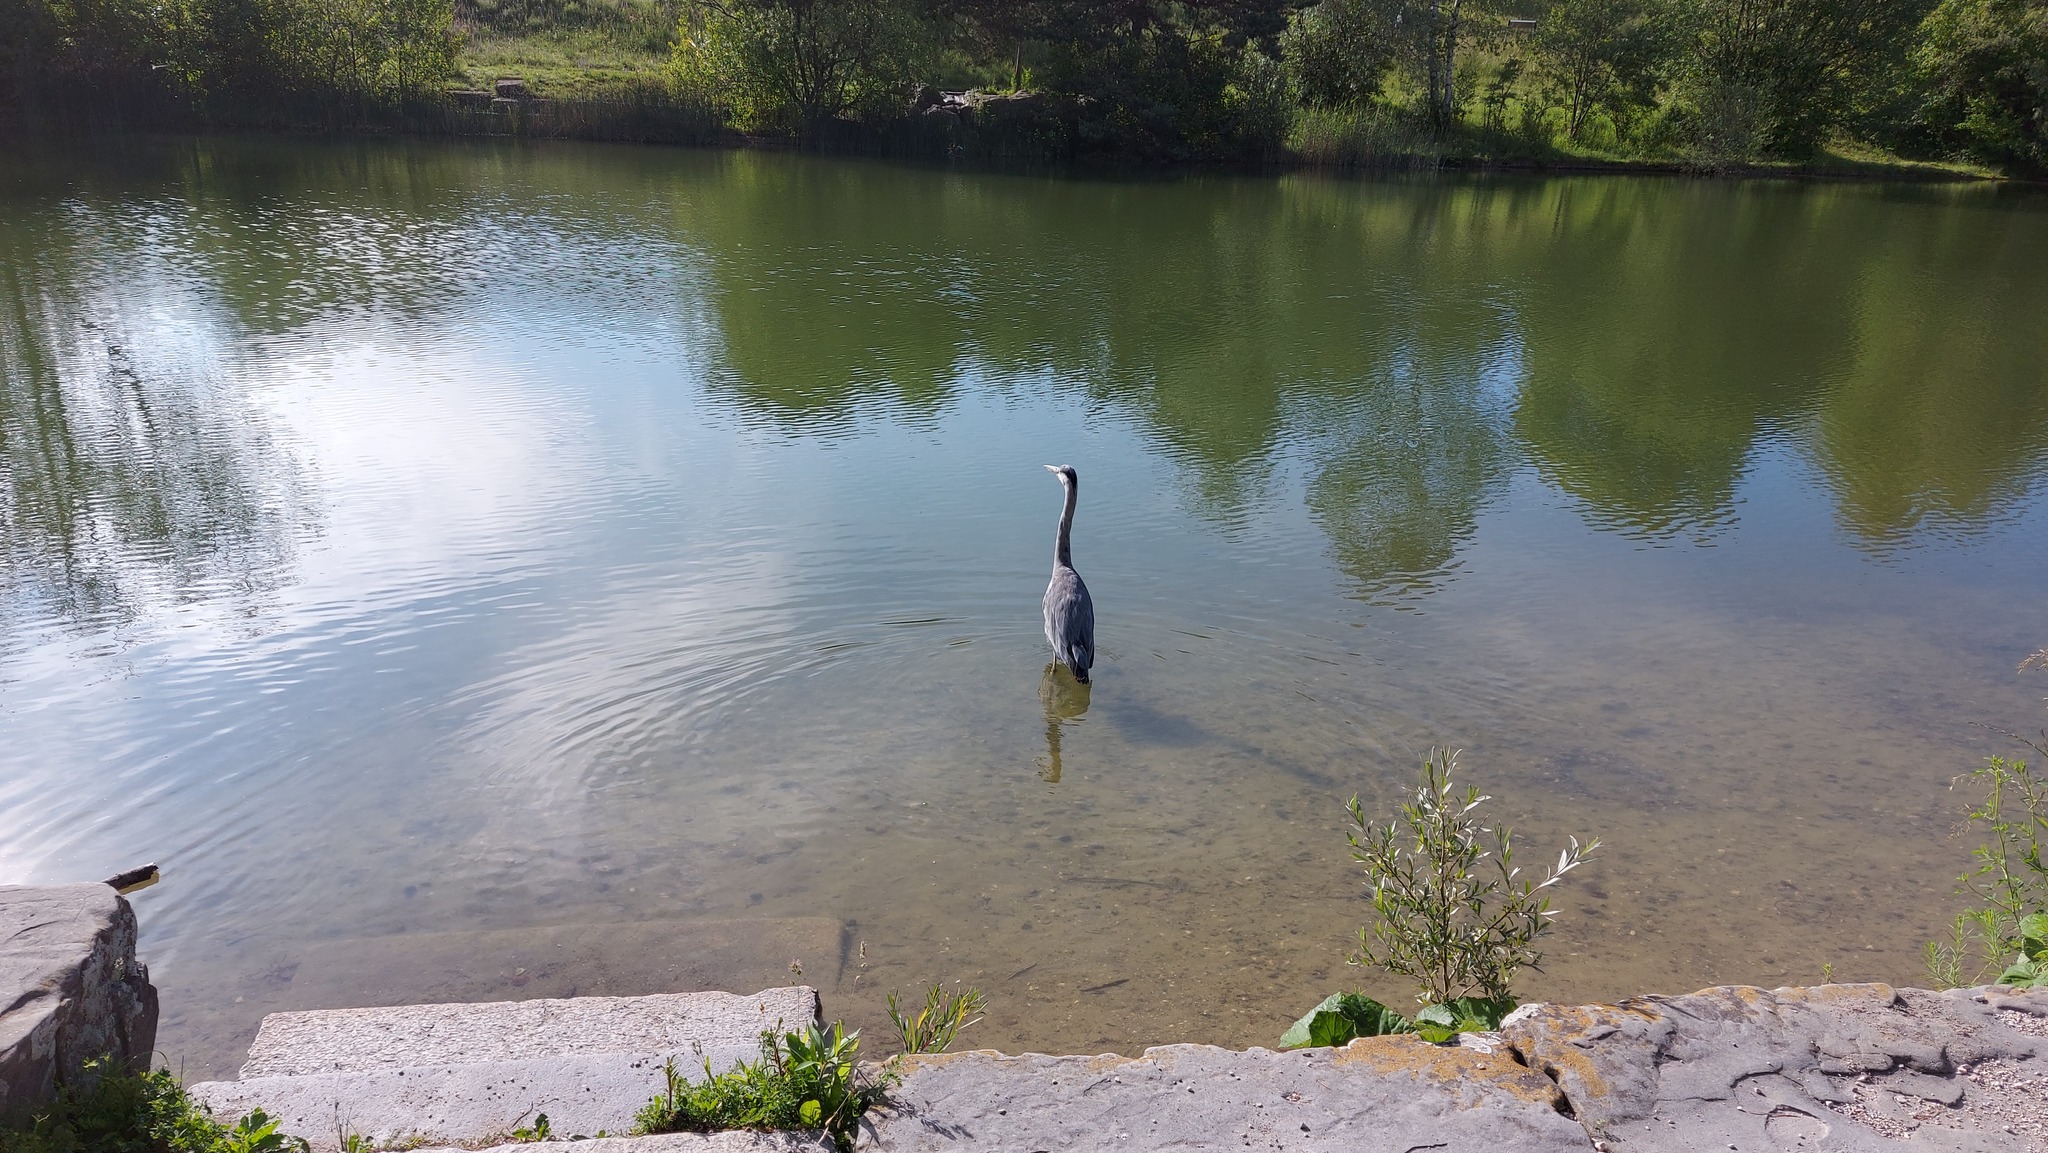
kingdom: Animalia
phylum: Chordata
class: Aves
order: Pelecaniformes
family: Ardeidae
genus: Ardea
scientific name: Ardea cinerea
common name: Grey heron
